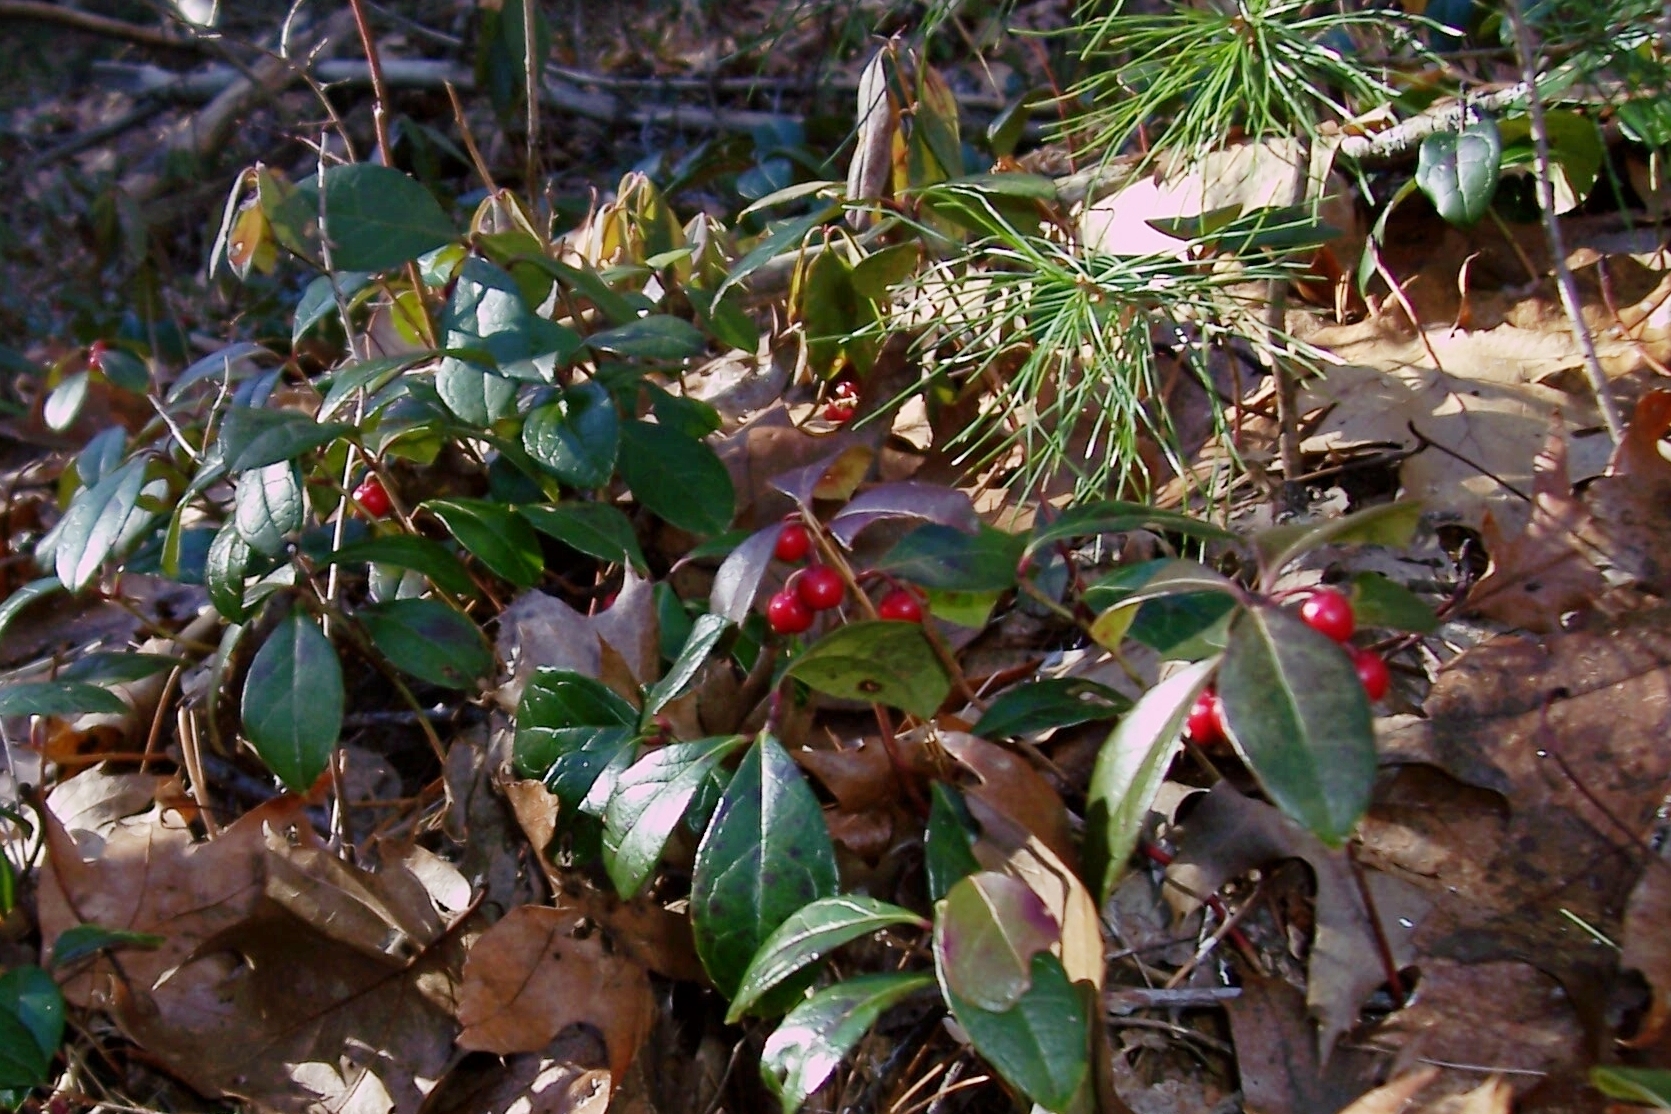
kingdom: Plantae
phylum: Tracheophyta
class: Magnoliopsida
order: Ericales
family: Ericaceae
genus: Gaultheria
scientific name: Gaultheria procumbens
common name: Checkerberry
